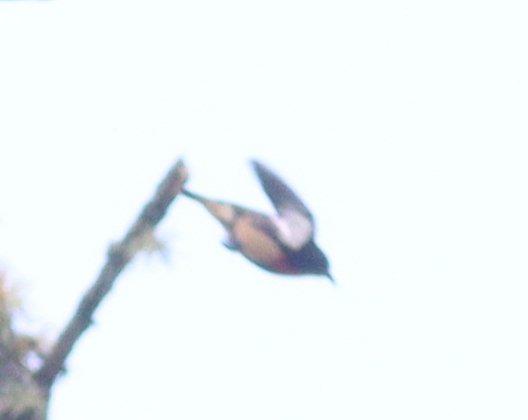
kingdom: Animalia
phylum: Chordata
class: Aves
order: Passeriformes
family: Dicaeidae
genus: Dicaeum
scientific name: Dicaeum sanguinolentum
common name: Blood-breasted flowerpecker
